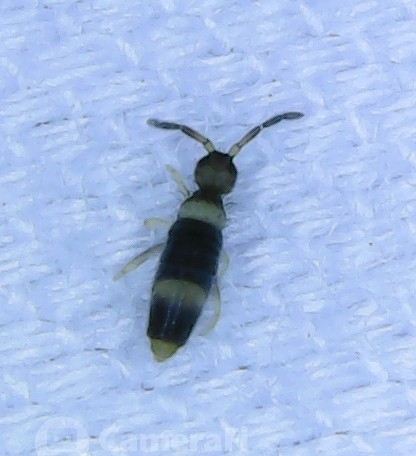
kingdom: Animalia
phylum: Arthropoda
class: Collembola
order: Entomobryomorpha
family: Entomobryidae
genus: Entomobrya
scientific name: Entomobrya clitellaria
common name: Springtail
